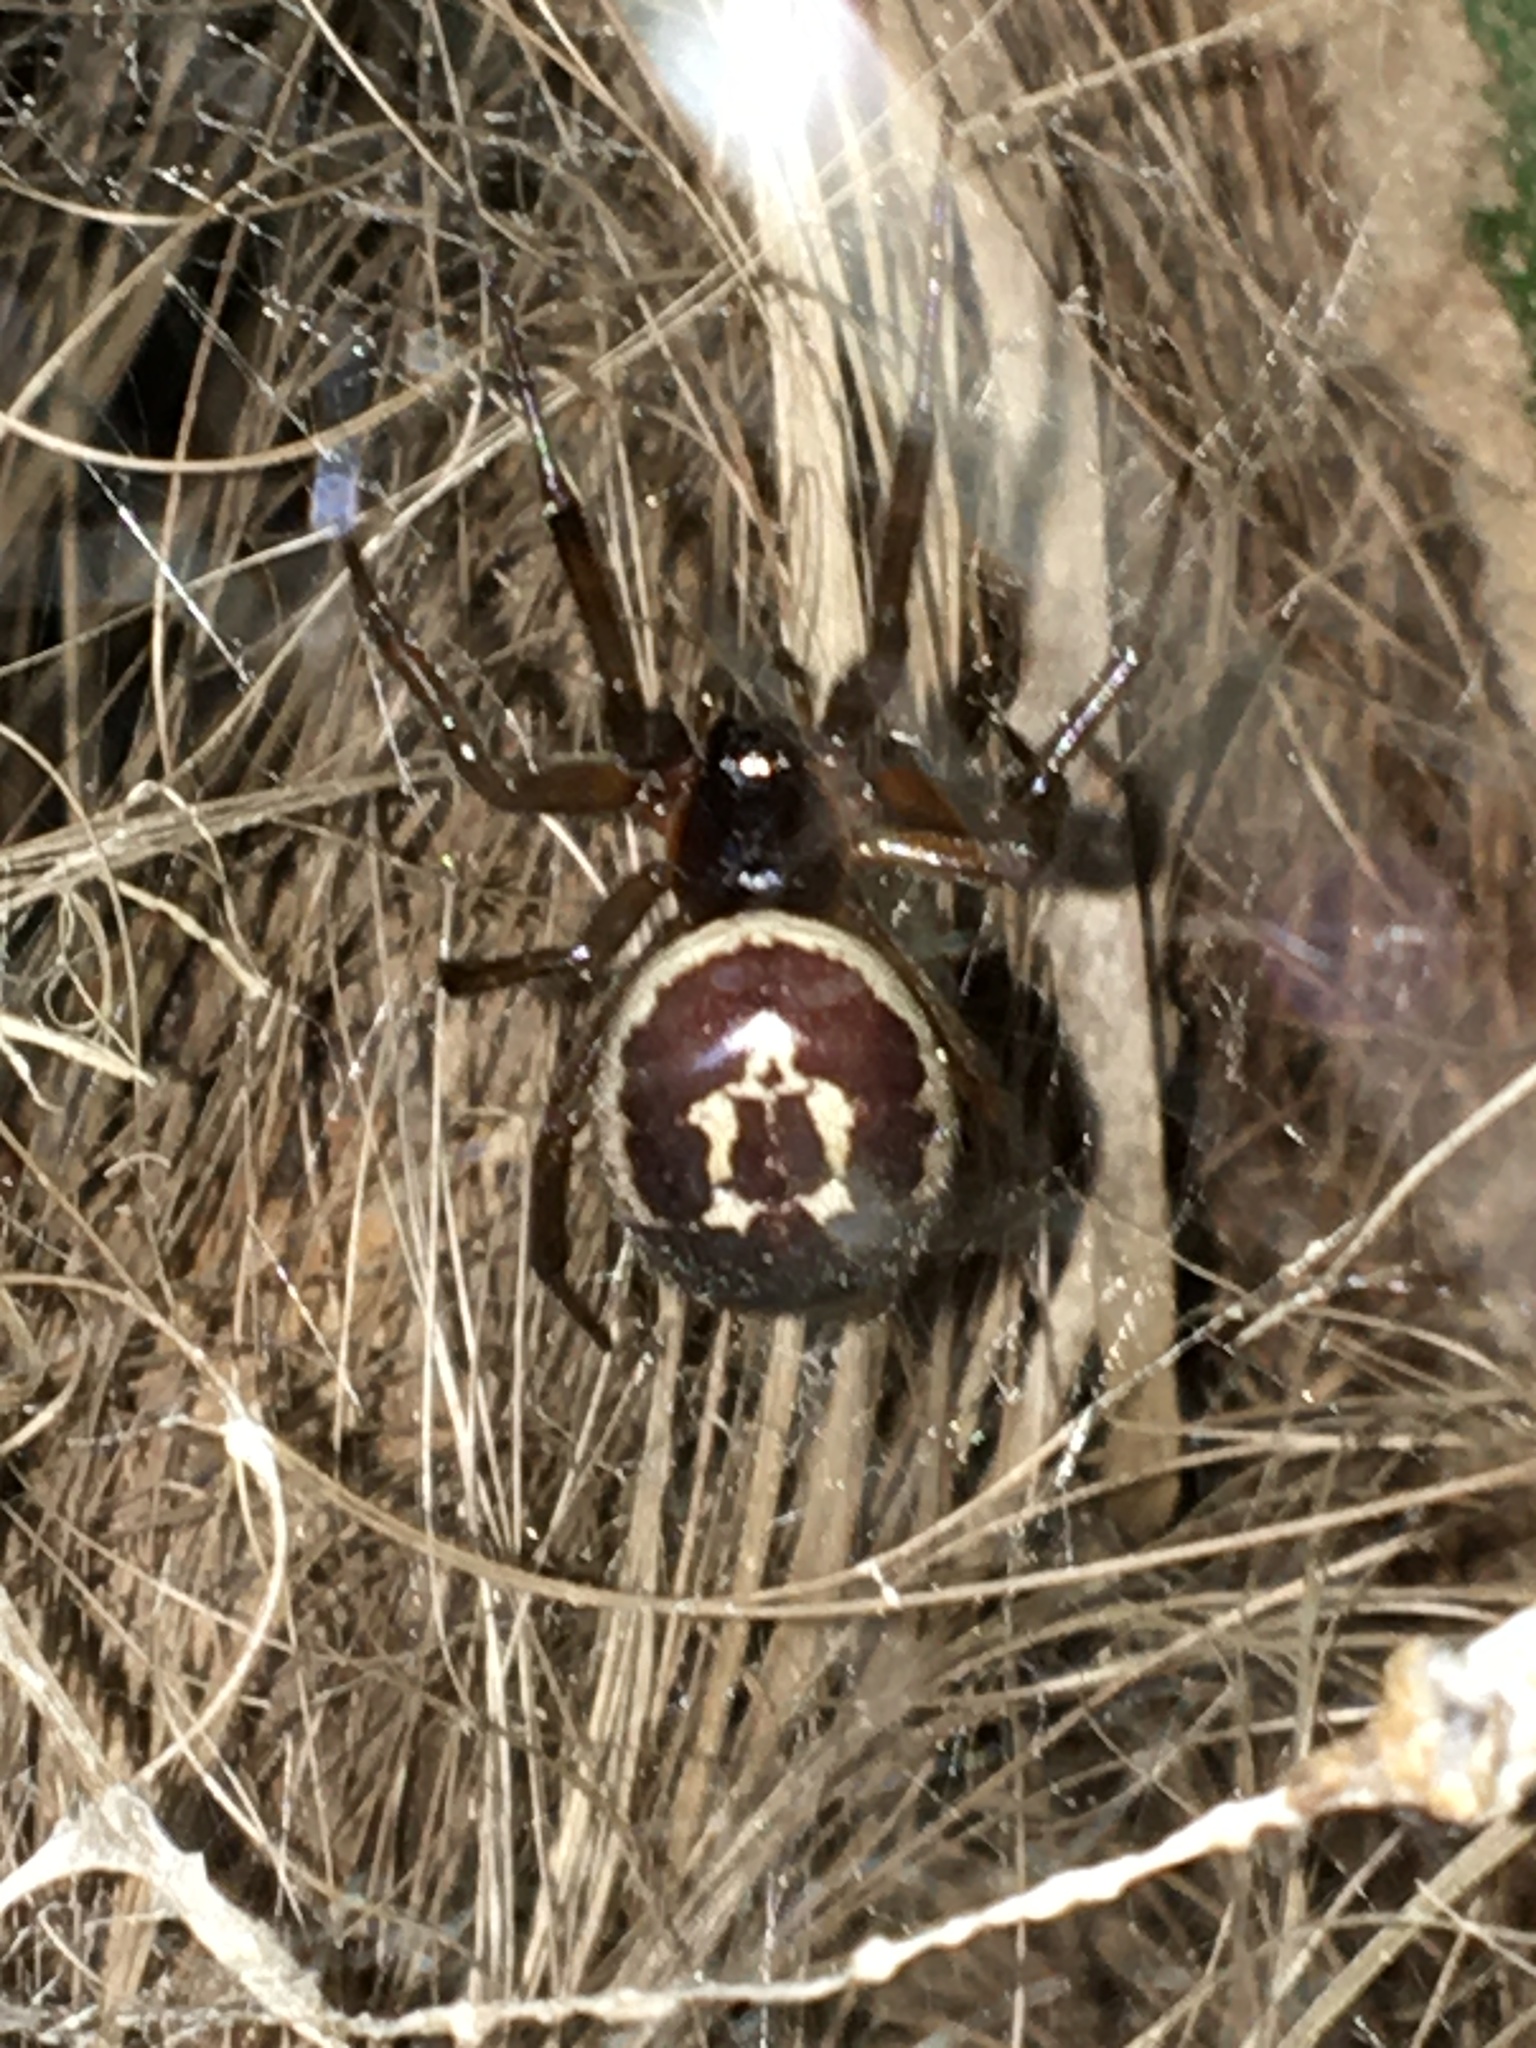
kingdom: Animalia
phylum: Arthropoda
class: Arachnida
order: Araneae
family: Theridiidae
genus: Steatoda
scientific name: Steatoda nobilis
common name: Cobweb weaver
